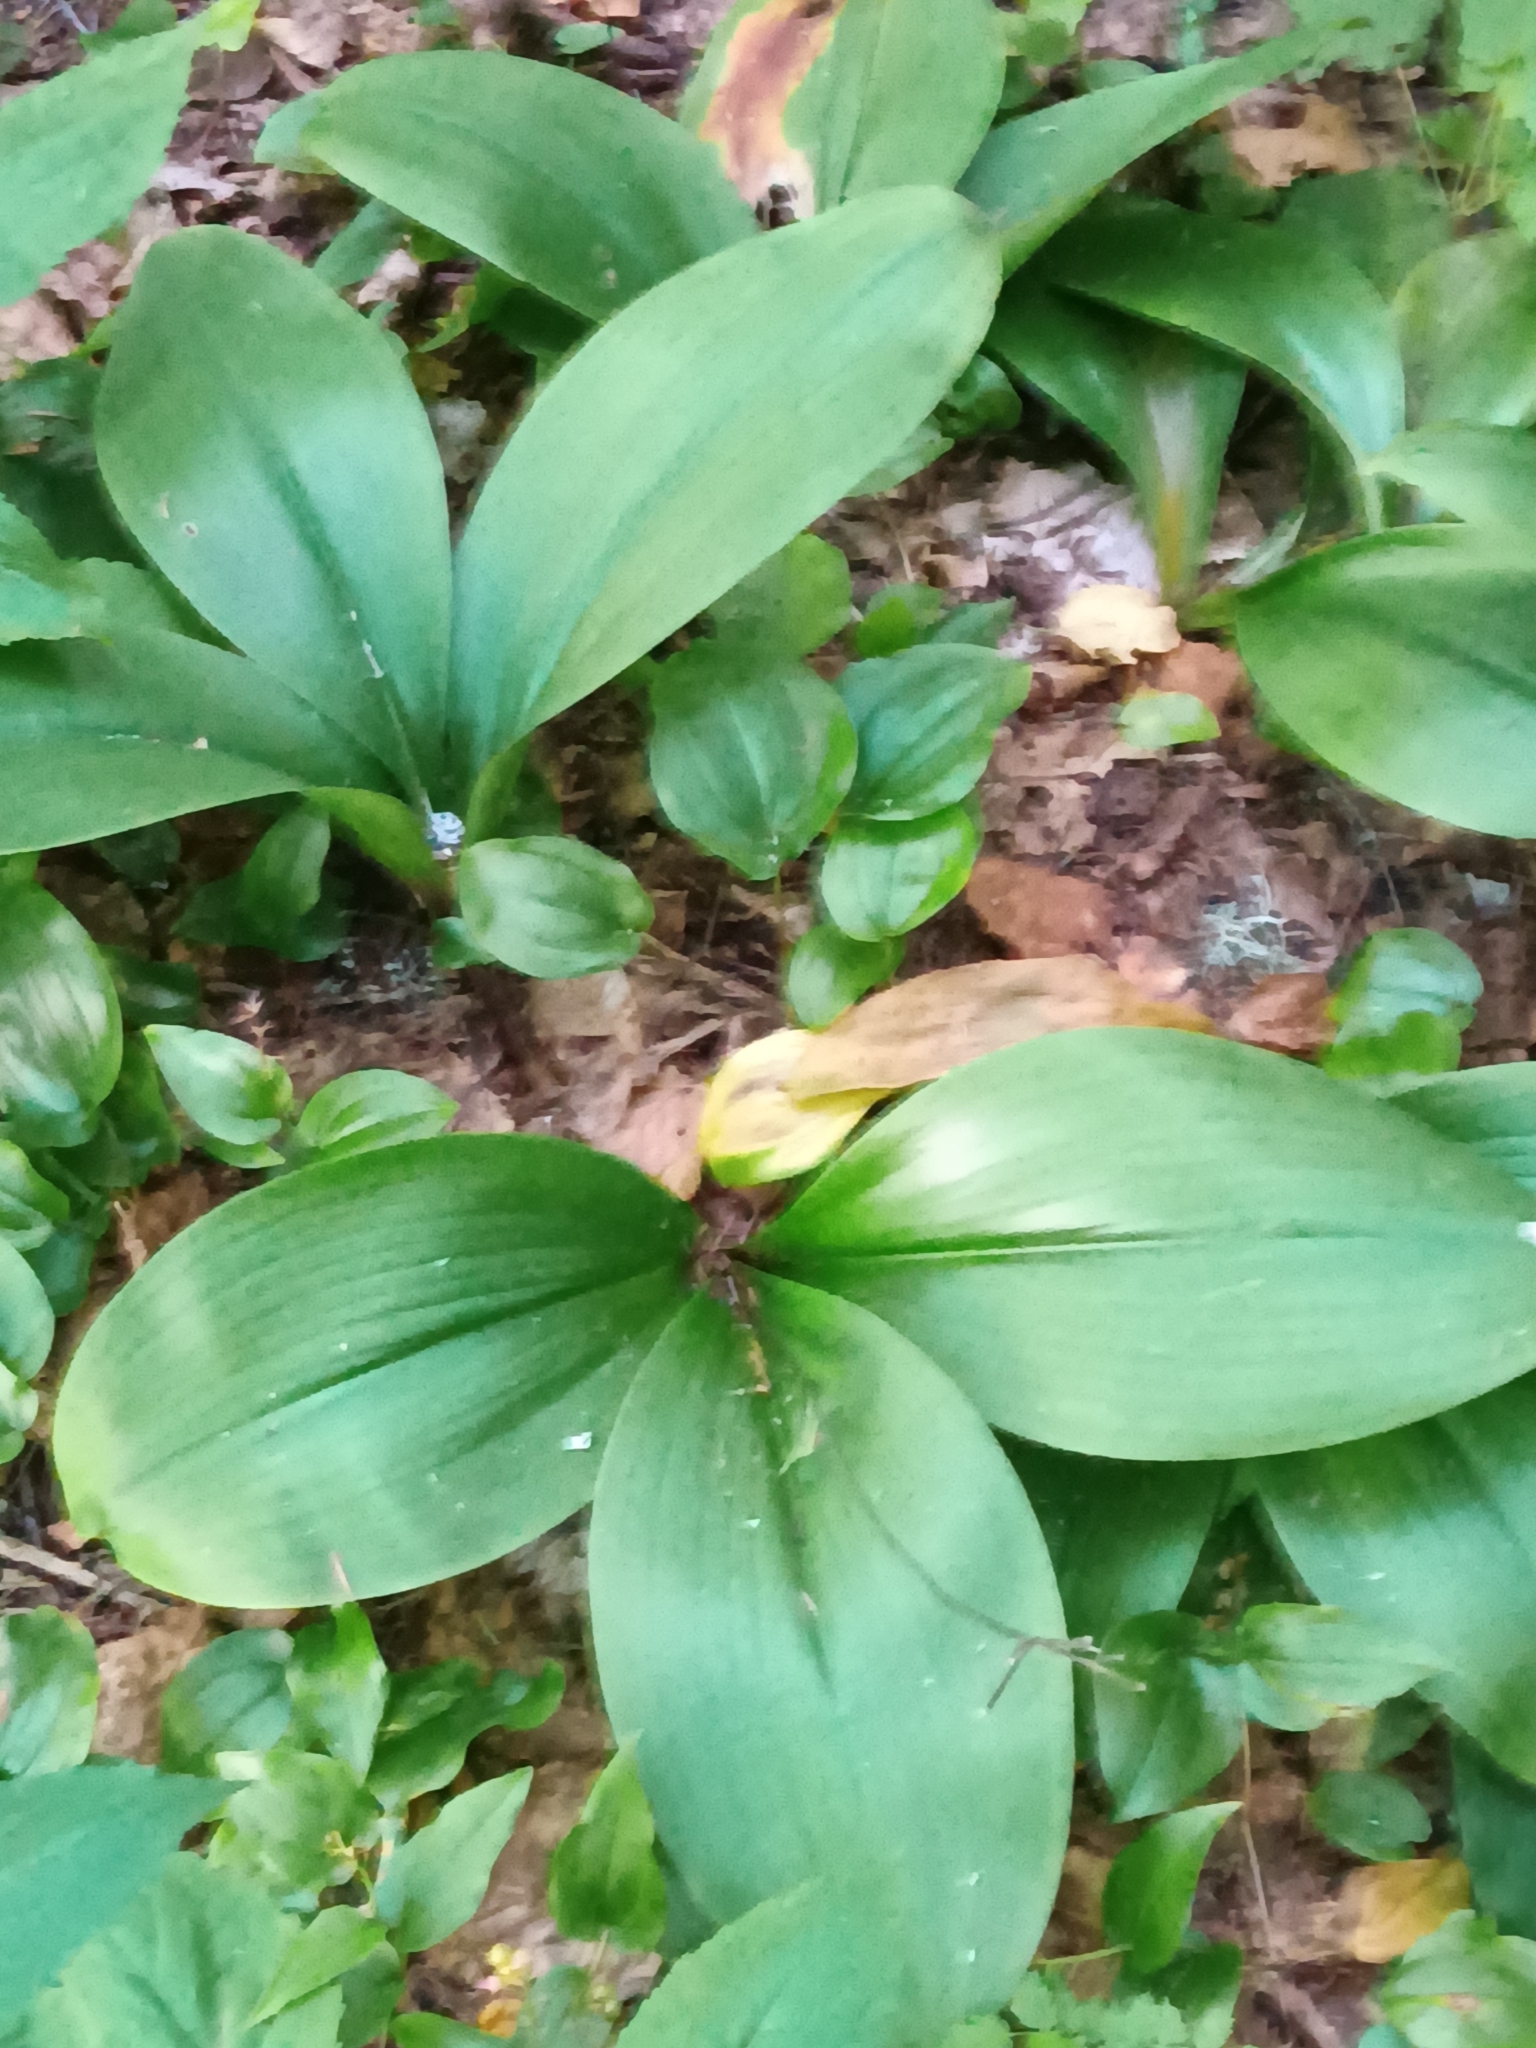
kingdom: Plantae
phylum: Tracheophyta
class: Liliopsida
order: Liliales
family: Liliaceae
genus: Clintonia
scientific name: Clintonia borealis
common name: Yellow clintonia
